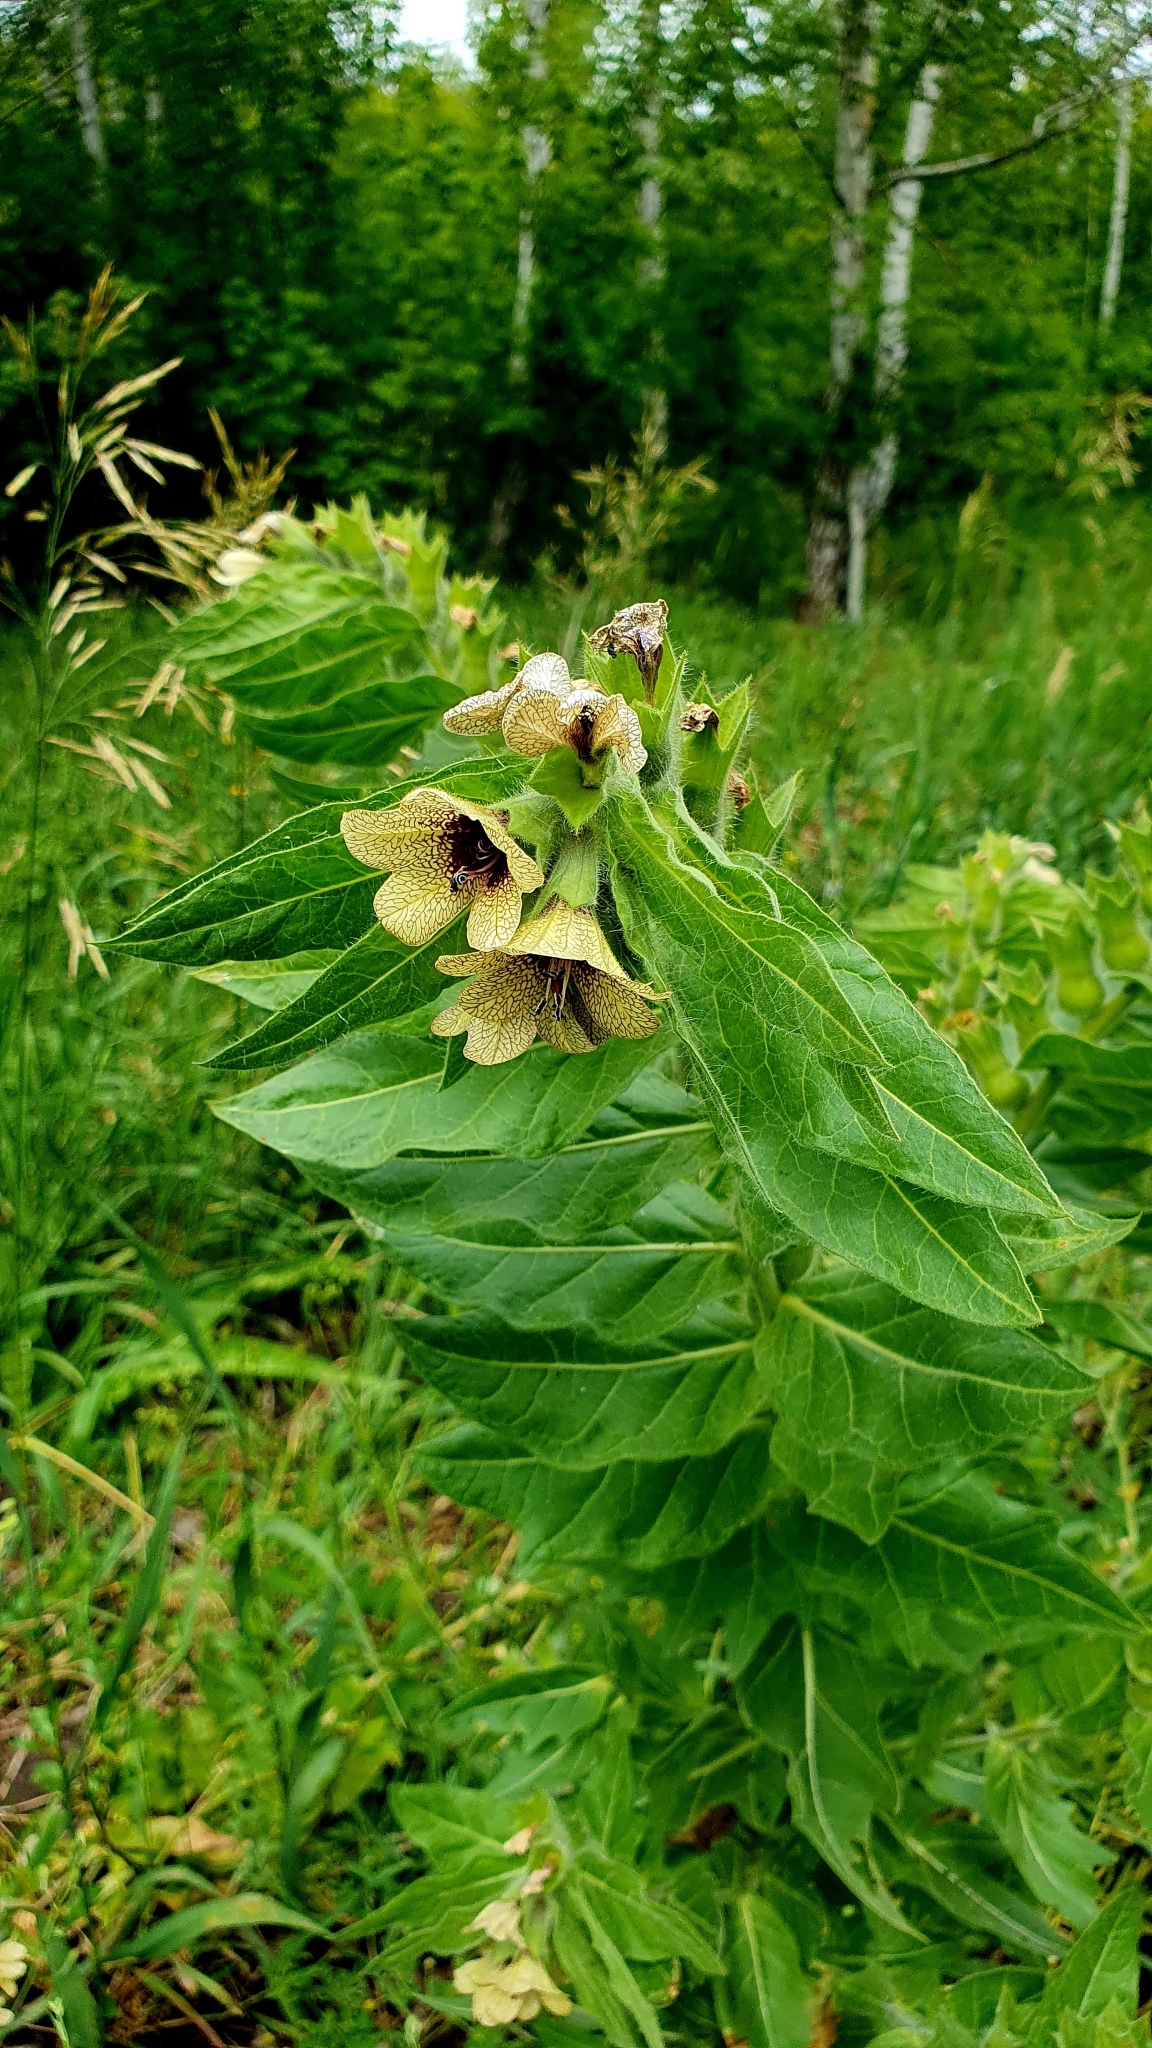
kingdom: Plantae
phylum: Tracheophyta
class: Magnoliopsida
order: Solanales
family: Solanaceae
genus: Hyoscyamus
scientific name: Hyoscyamus niger
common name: Henbane
